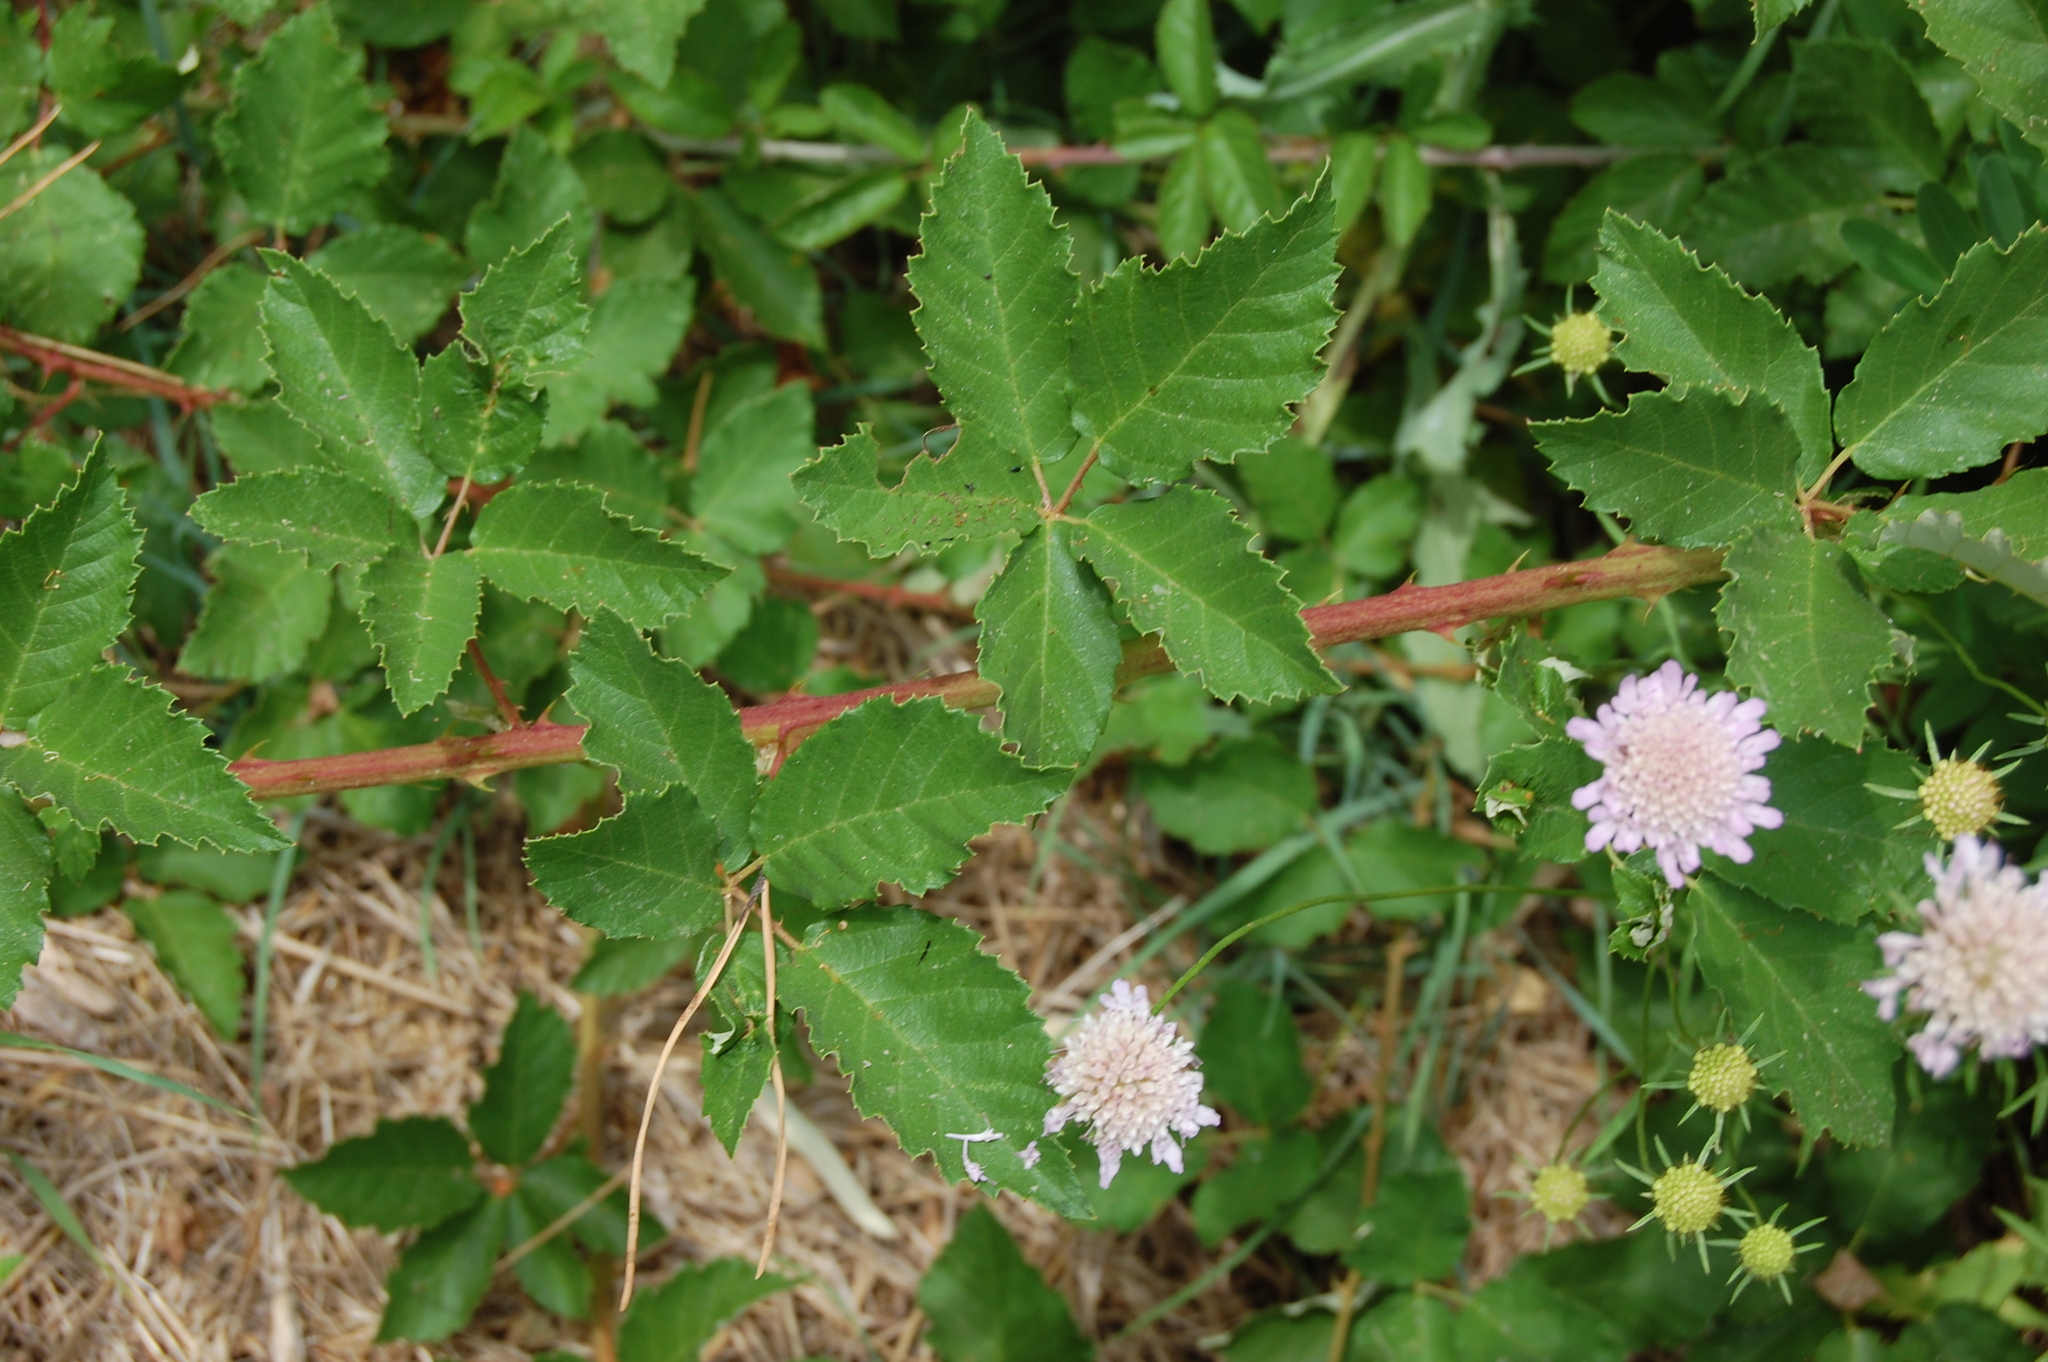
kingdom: Plantae
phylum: Tracheophyta
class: Magnoliopsida
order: Rosales
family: Rosaceae
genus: Rubus
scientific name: Rubus ulmifolius
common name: Elmleaf blackberry
